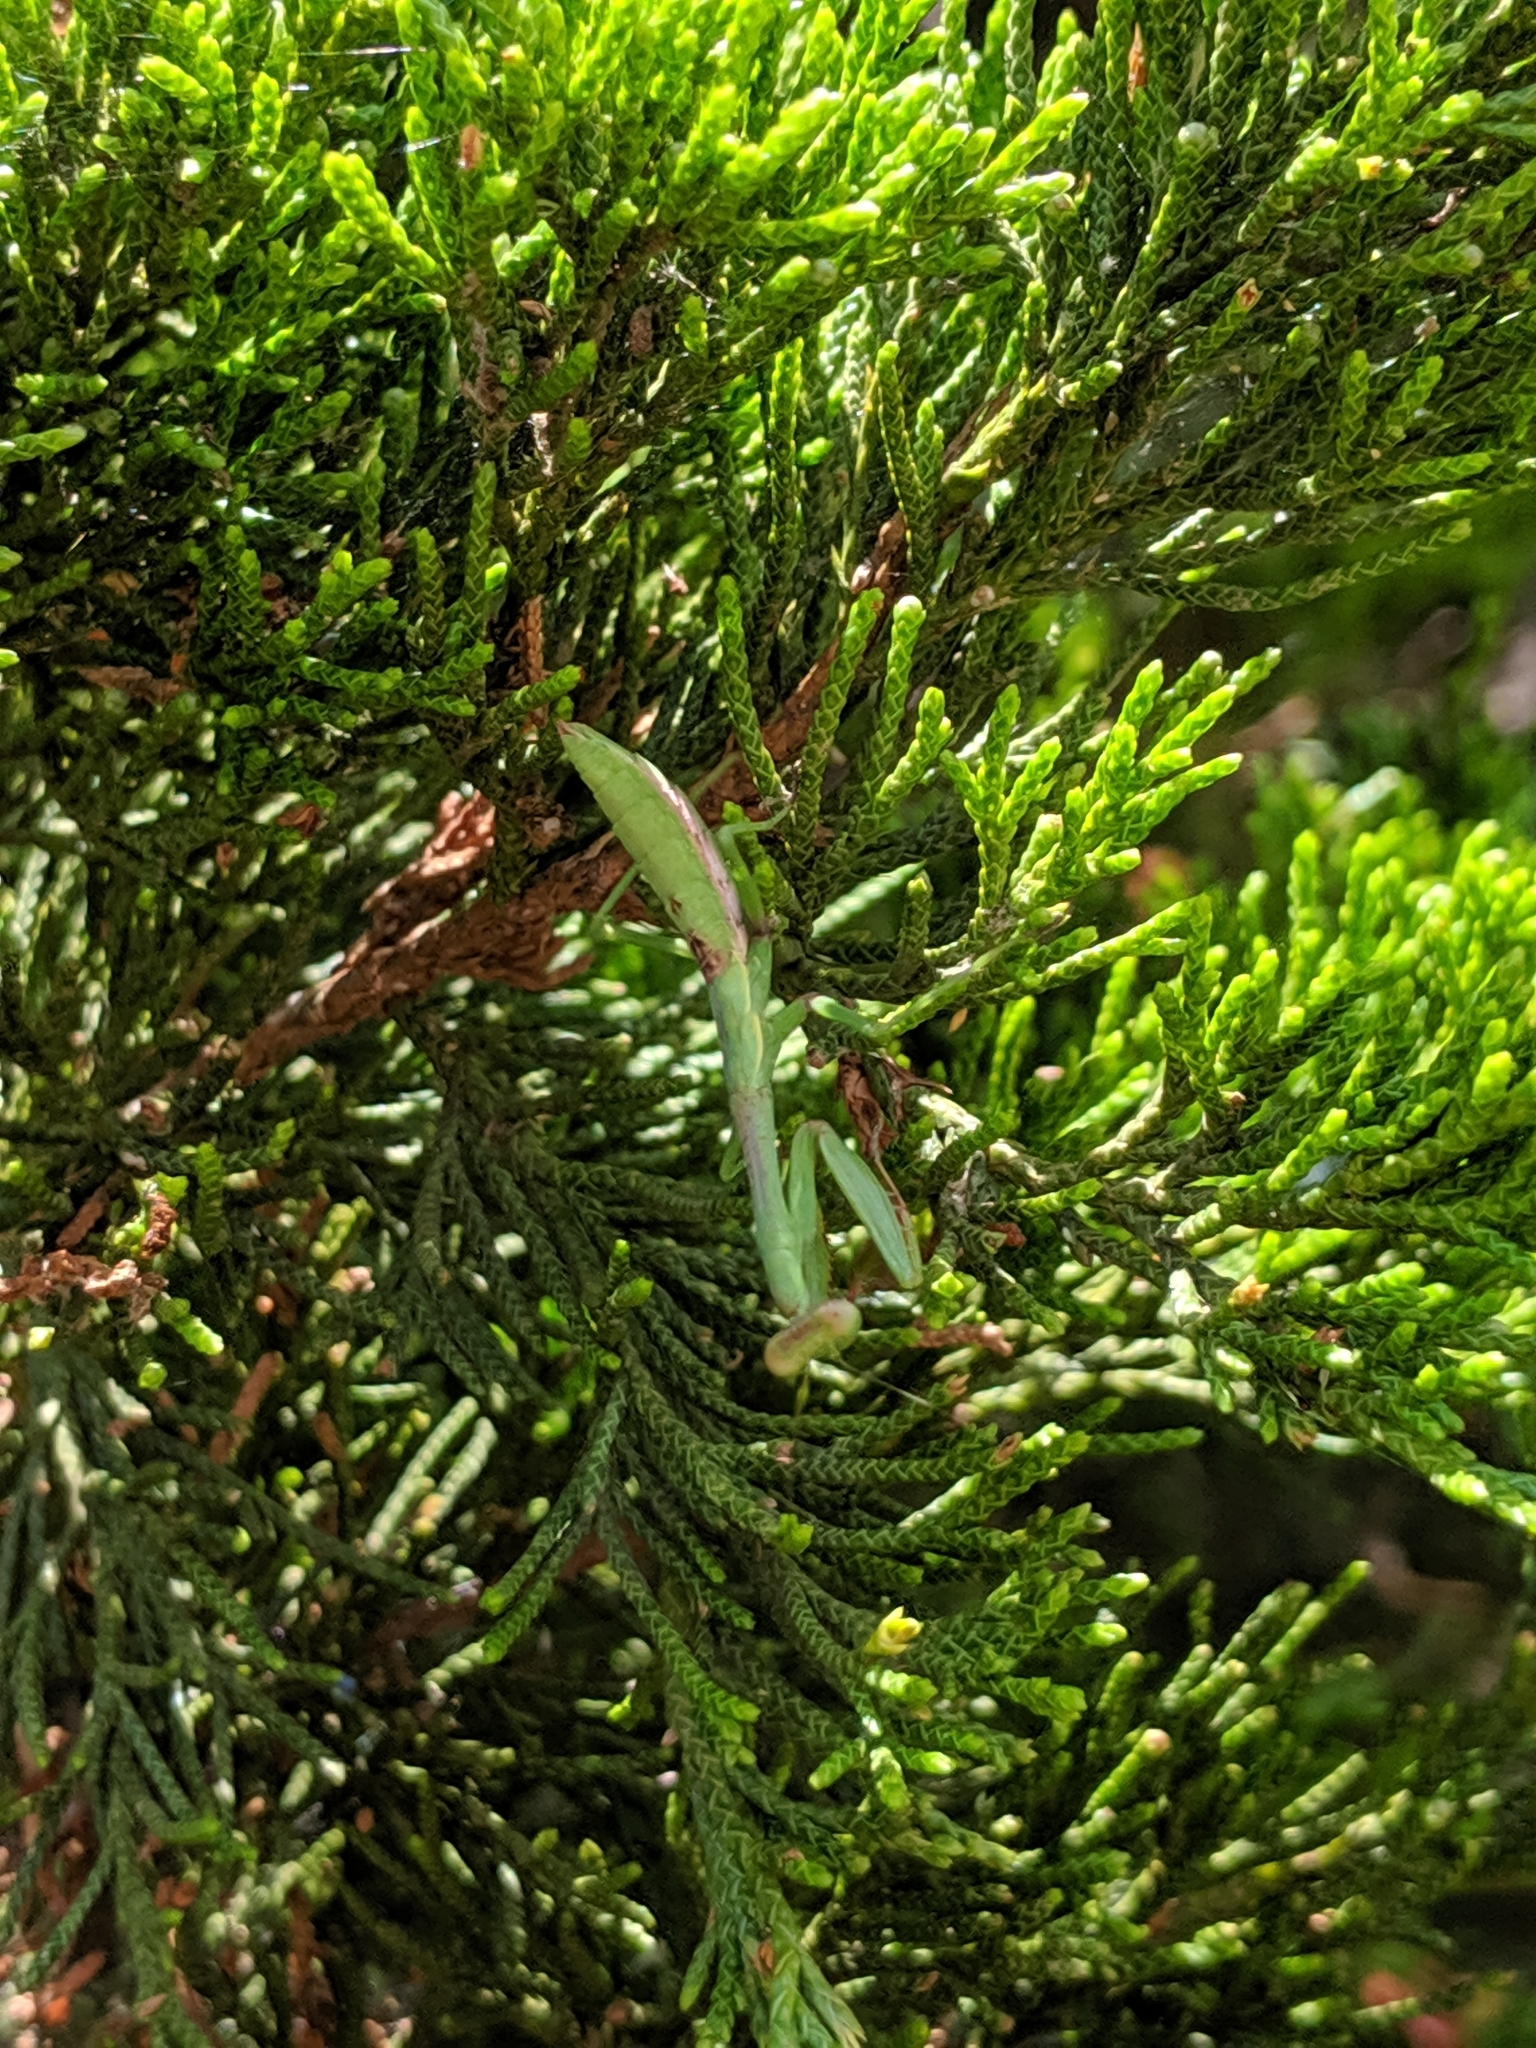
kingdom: Animalia
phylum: Arthropoda
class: Insecta
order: Mantodea
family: Mantidae
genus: Stagmomantis
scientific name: Stagmomantis carolina
